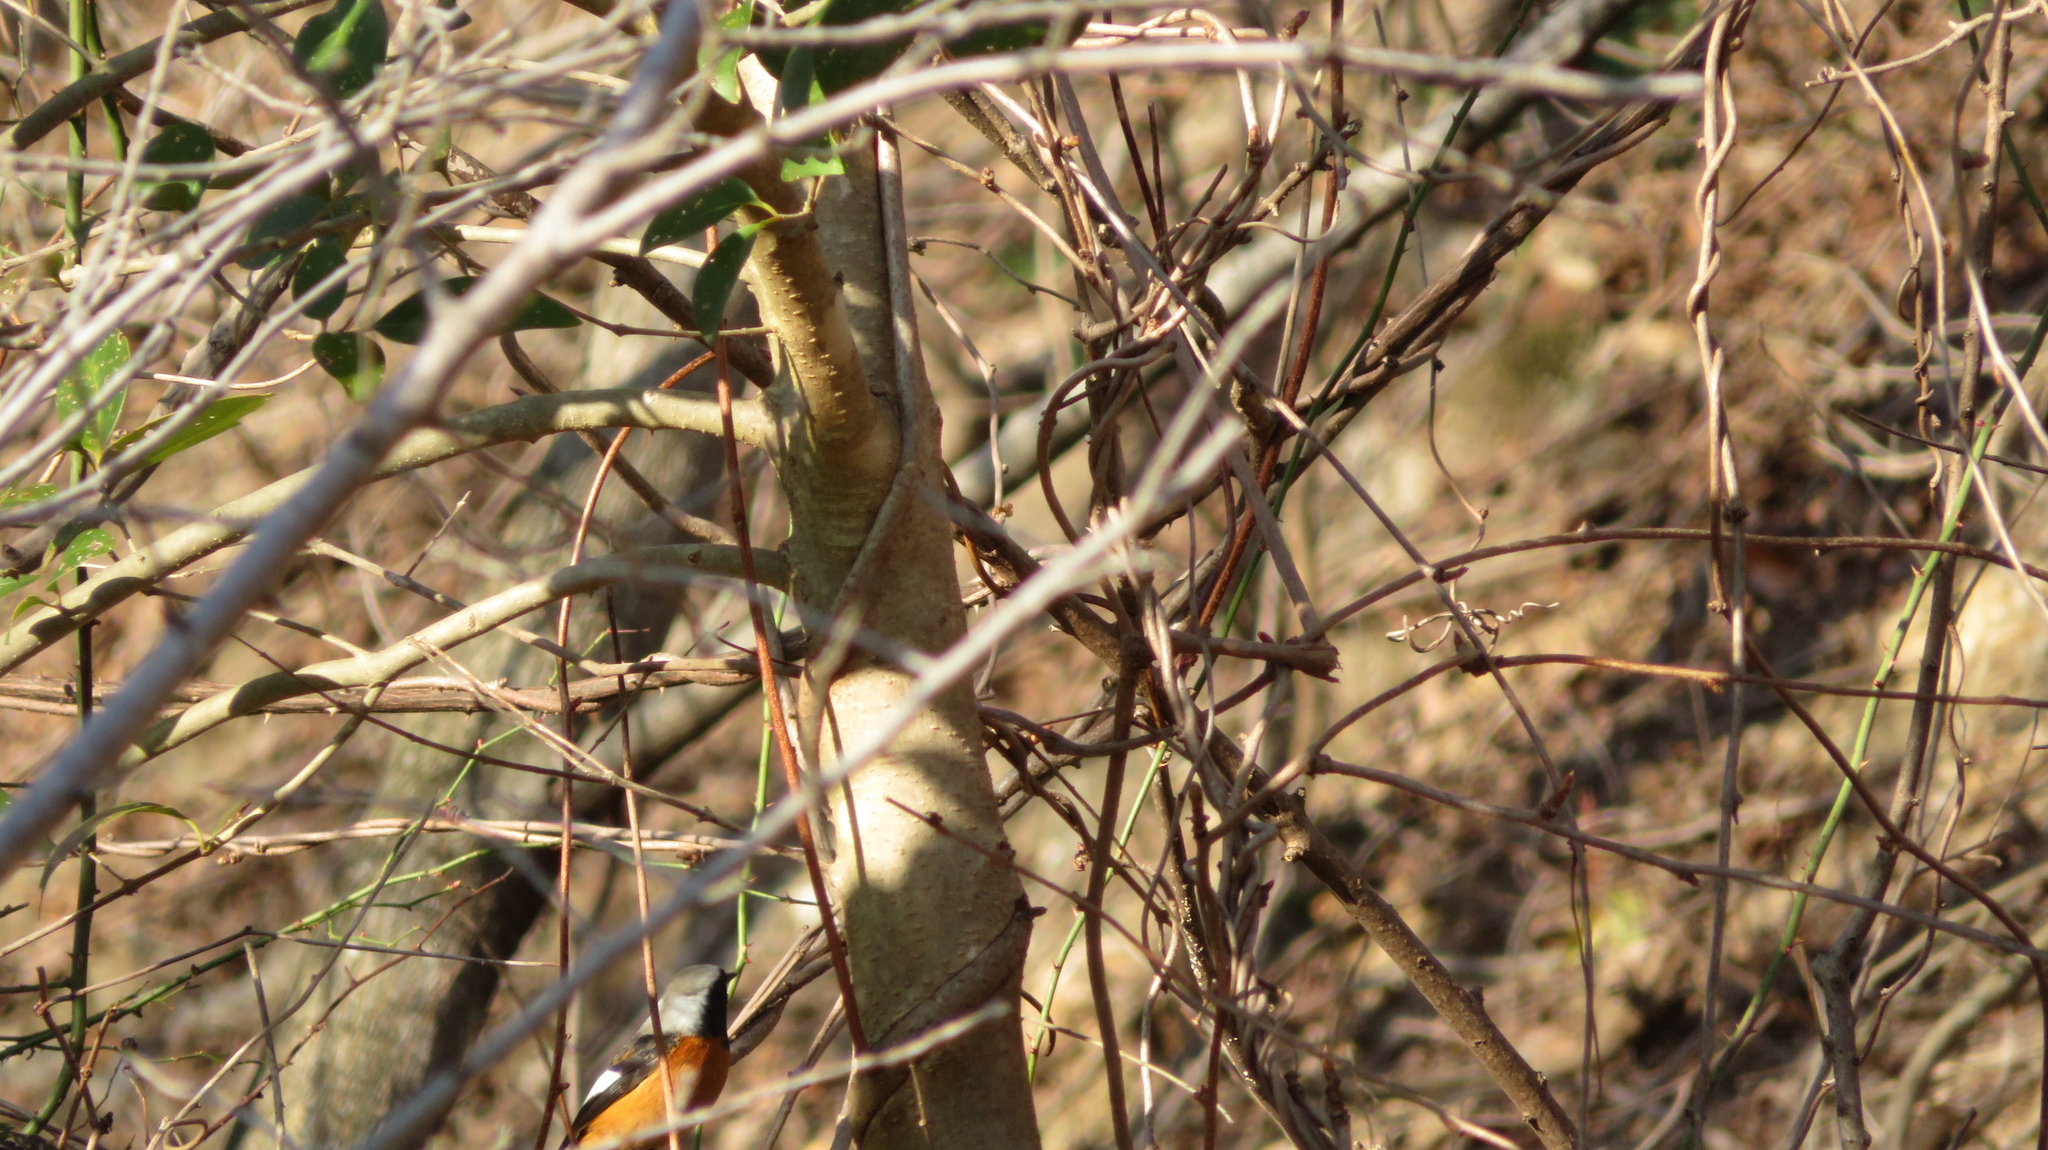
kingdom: Animalia
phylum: Chordata
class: Aves
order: Passeriformes
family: Muscicapidae
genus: Phoenicurus
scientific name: Phoenicurus auroreus
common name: Daurian redstart
